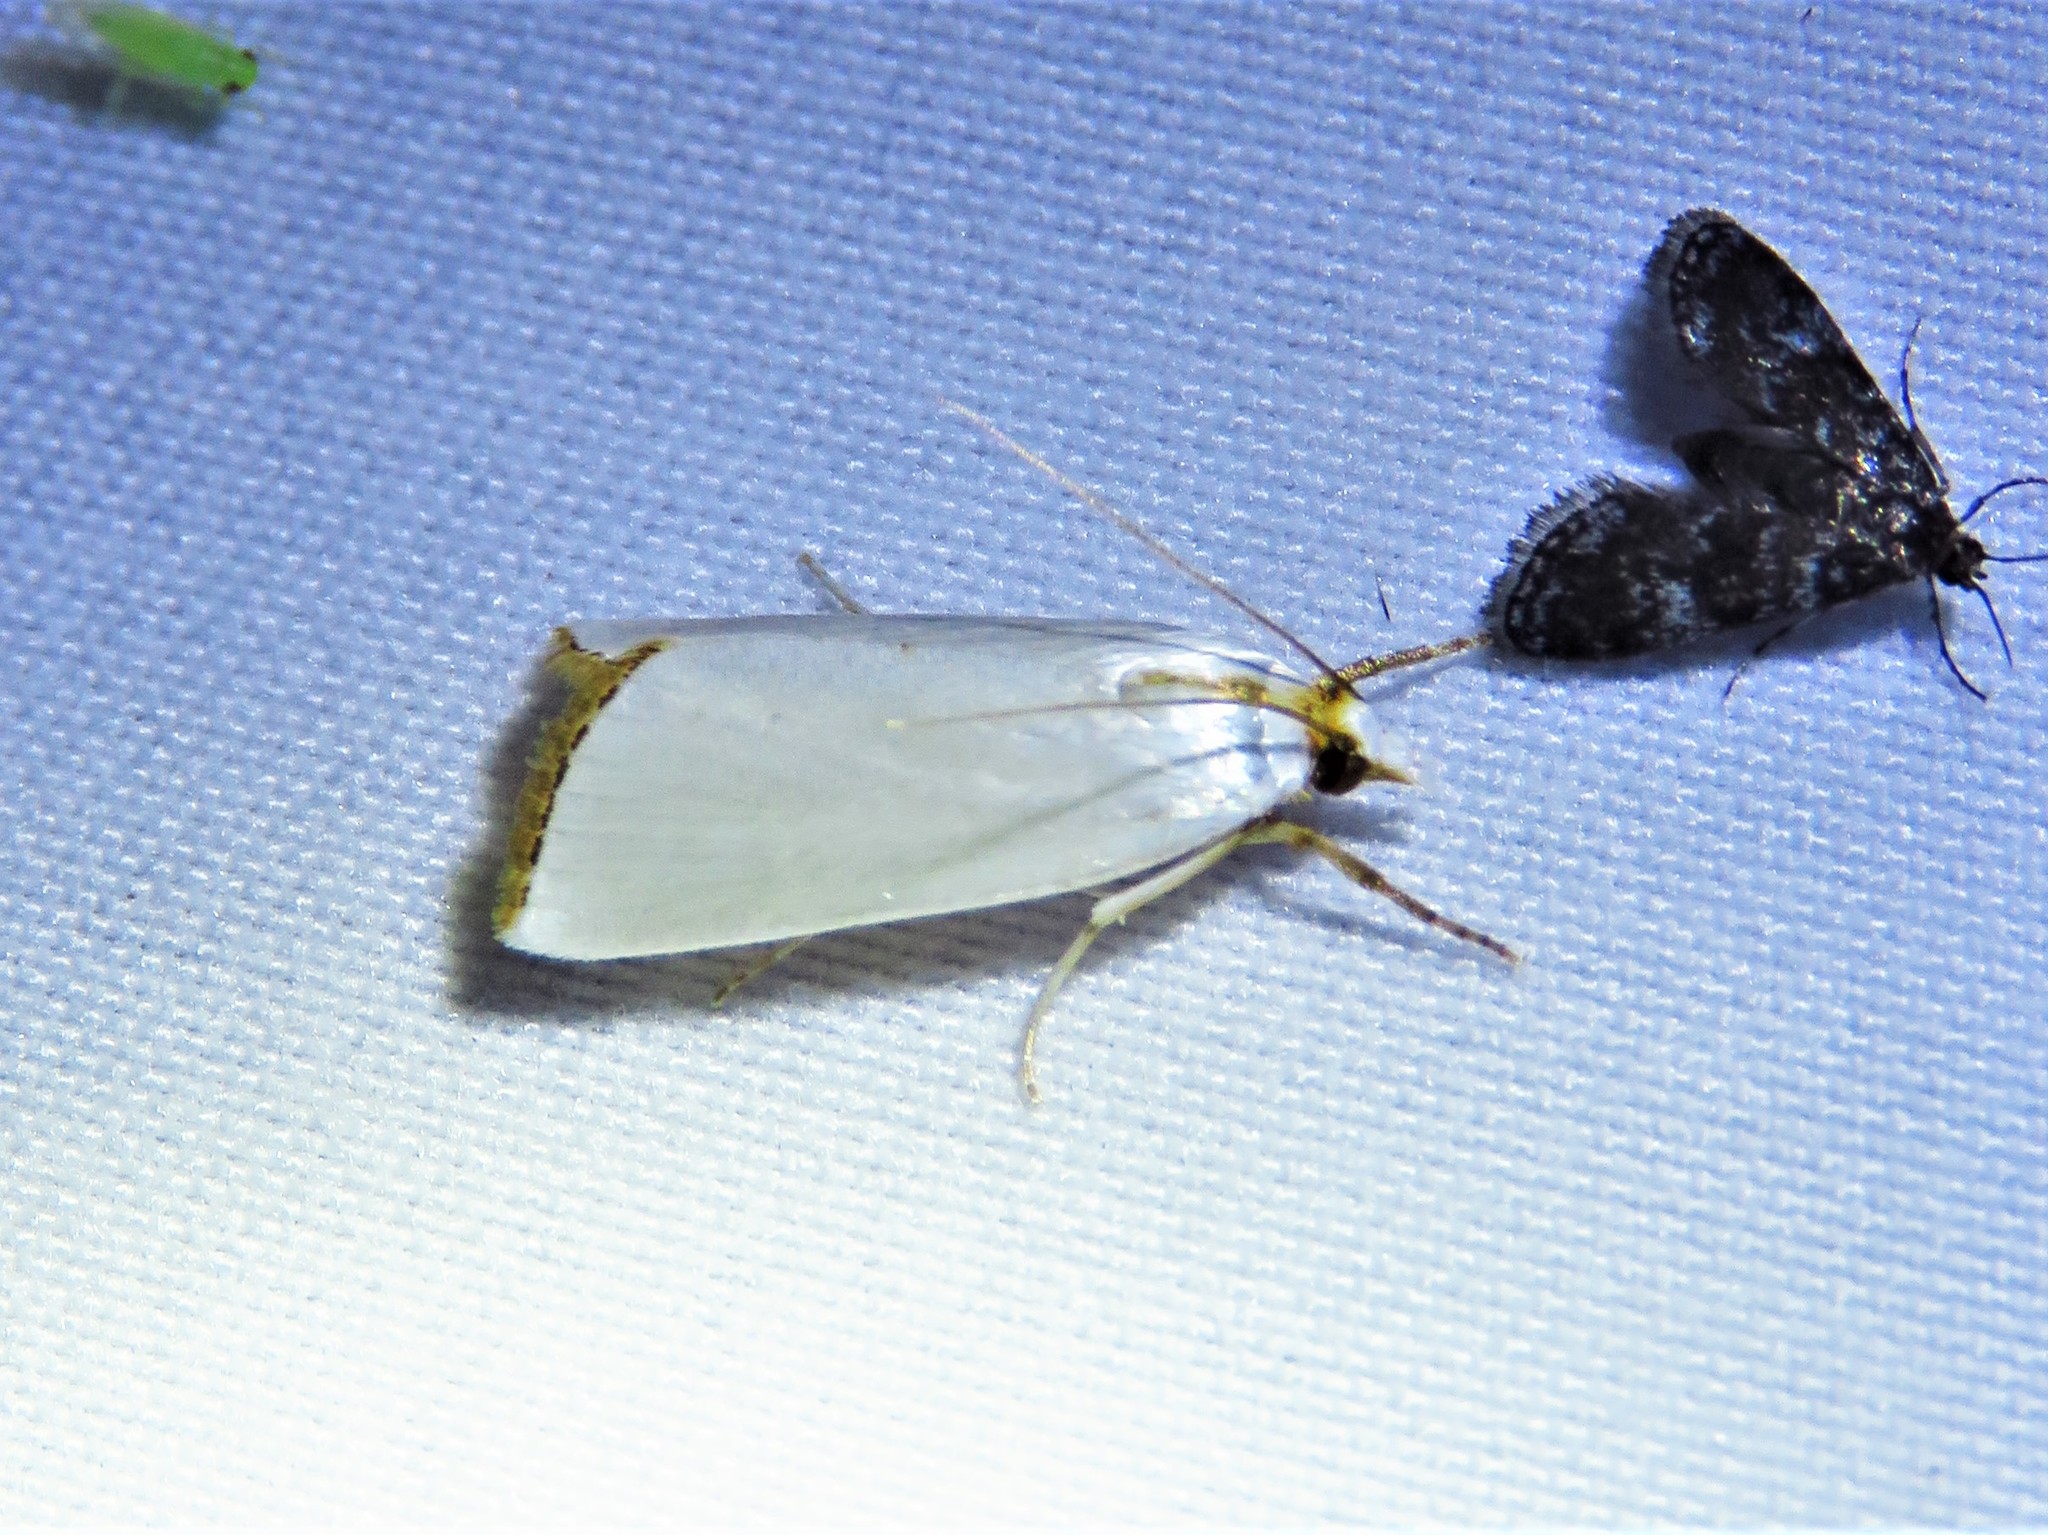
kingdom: Animalia
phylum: Arthropoda
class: Insecta
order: Lepidoptera
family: Crambidae
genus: Argyria
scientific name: Argyria nivalis
